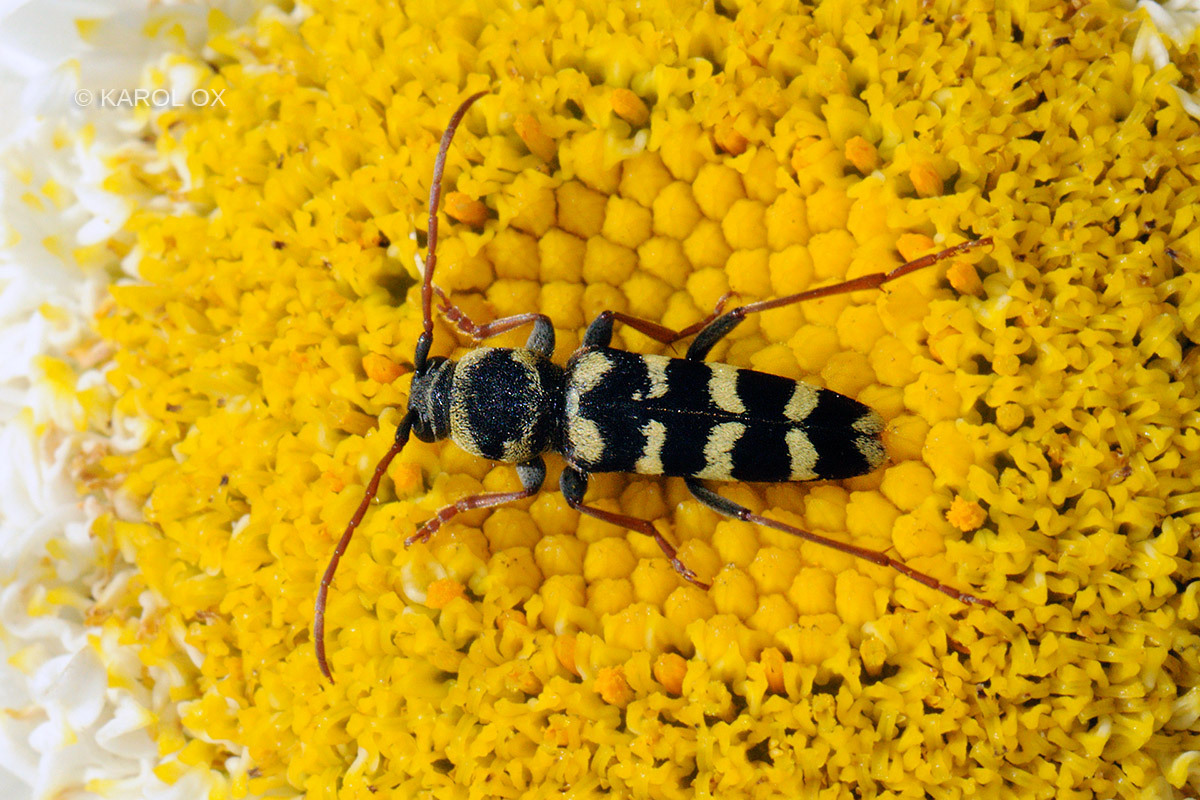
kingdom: Animalia
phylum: Arthropoda
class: Insecta
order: Coleoptera
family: Cerambycidae
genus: Plagionotus
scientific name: Plagionotus floralis
